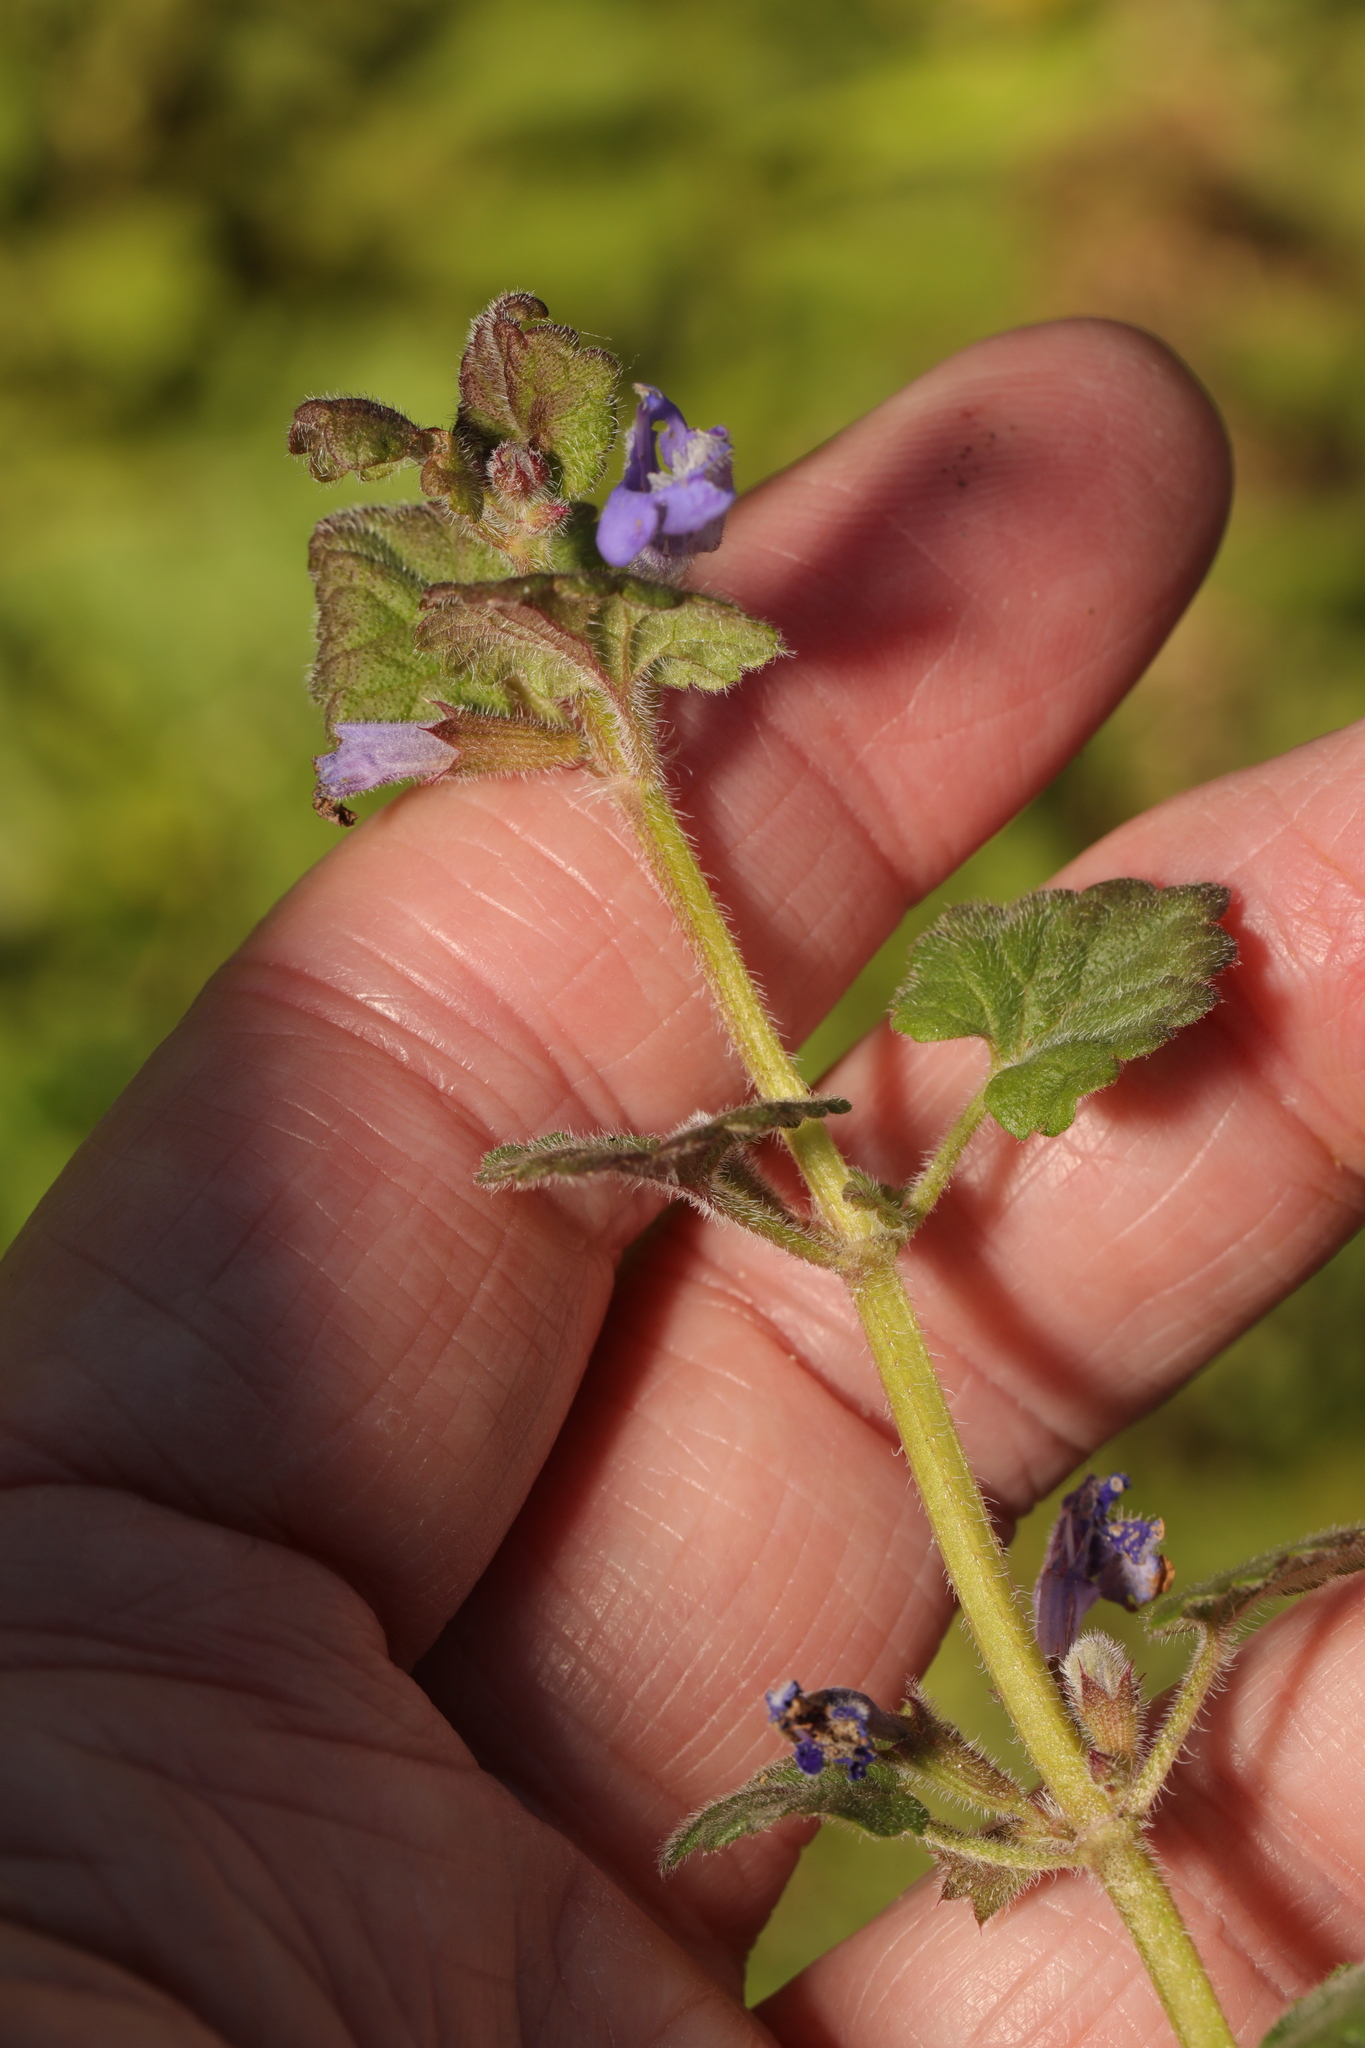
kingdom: Plantae
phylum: Tracheophyta
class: Magnoliopsida
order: Lamiales
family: Lamiaceae
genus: Glechoma
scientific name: Glechoma hederacea
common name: Ground ivy
